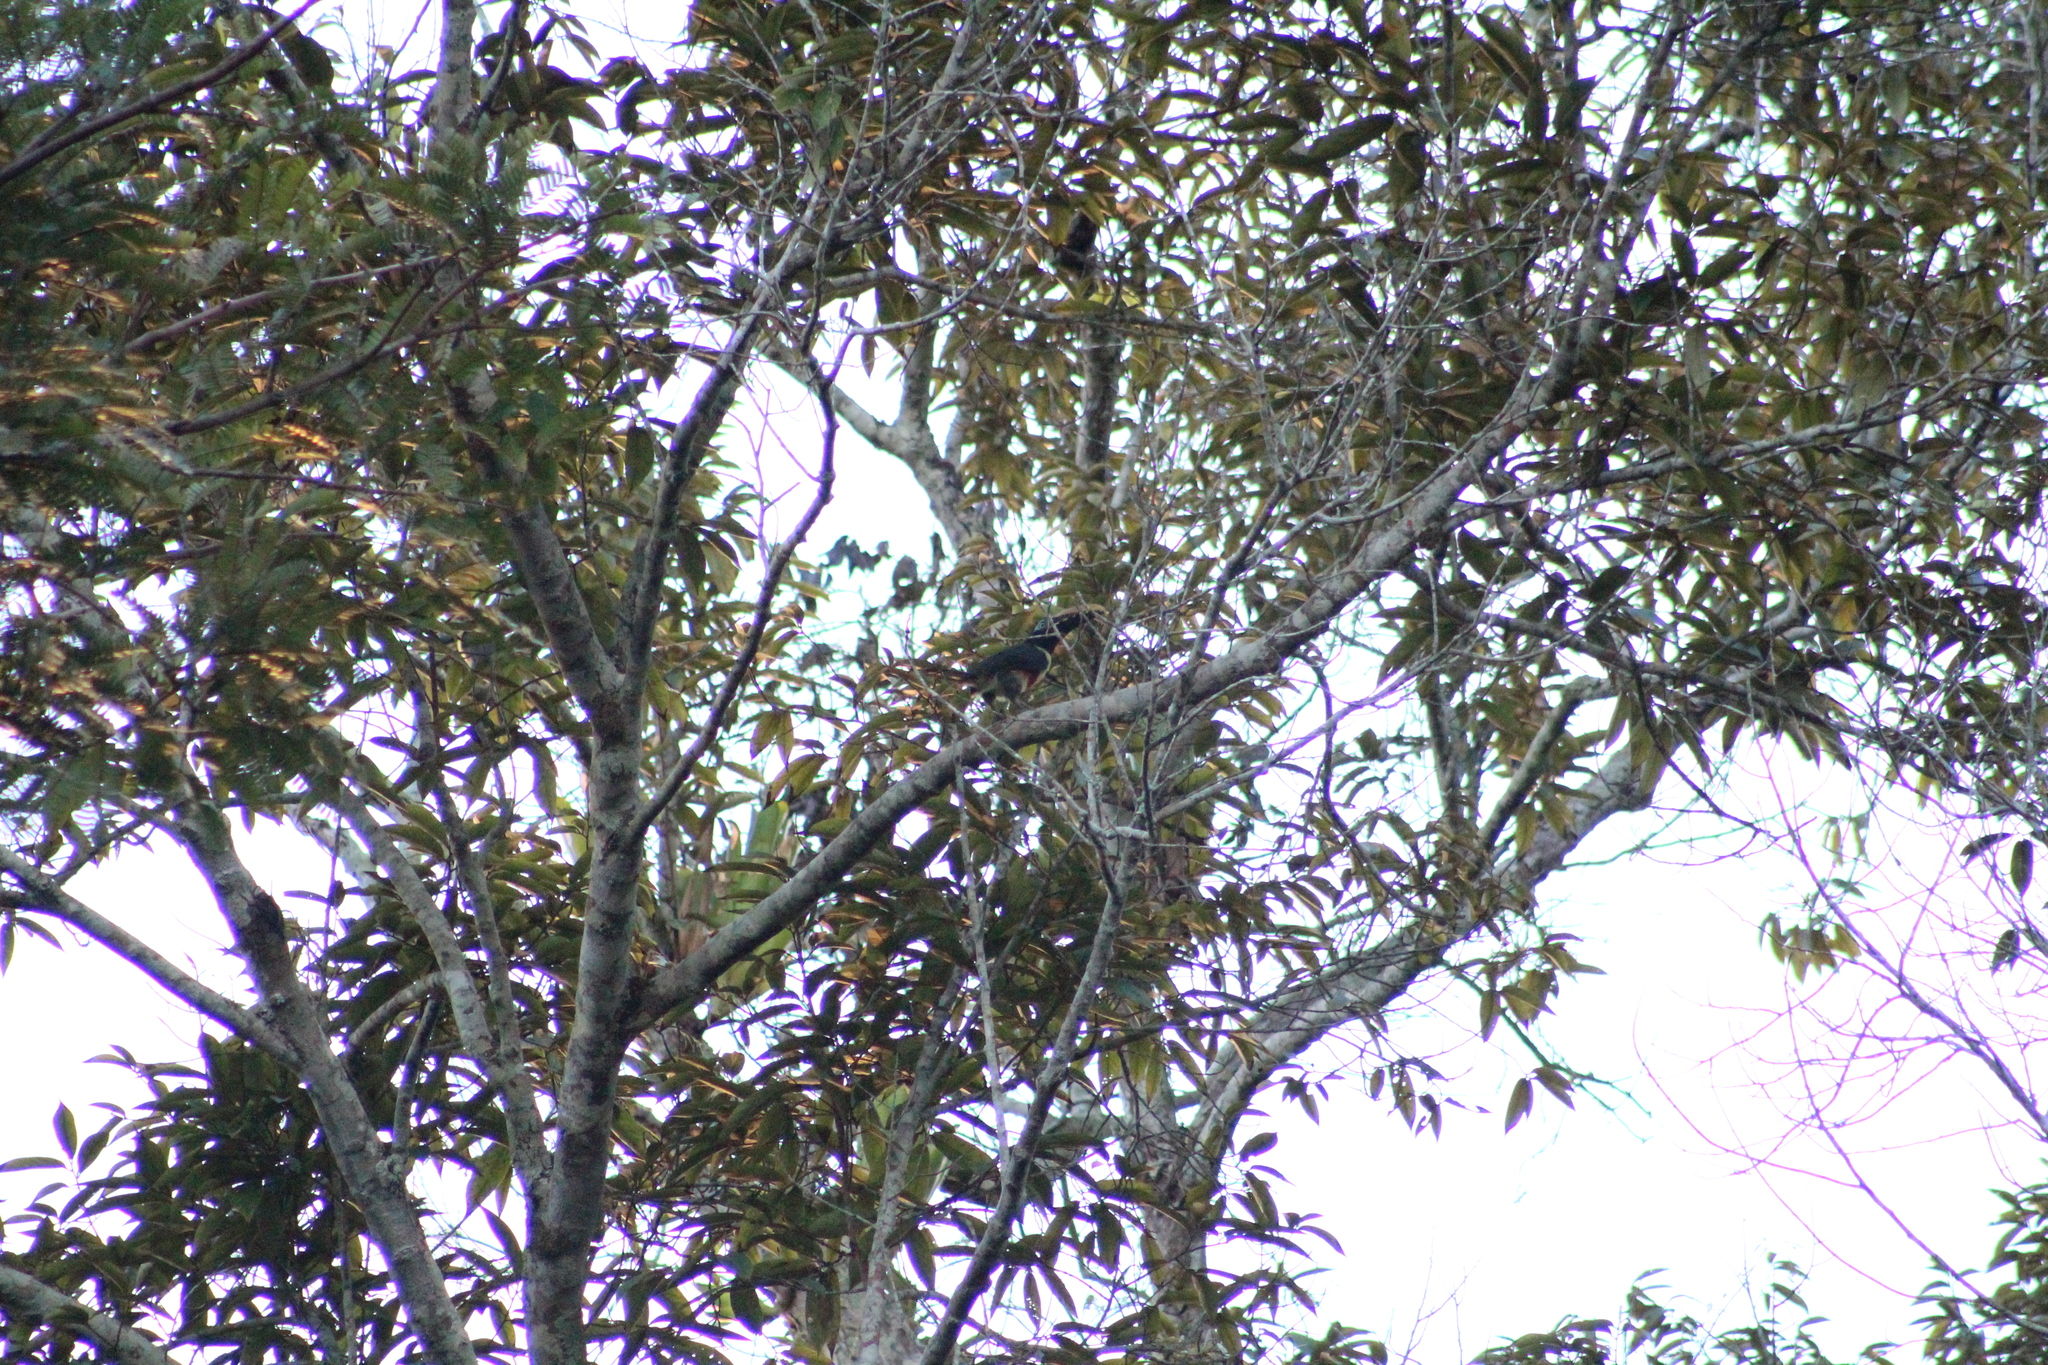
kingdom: Animalia
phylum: Chordata
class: Aves
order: Piciformes
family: Ramphastidae
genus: Pteroglossus
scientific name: Pteroglossus castanotis
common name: Chestnut-eared aracari
